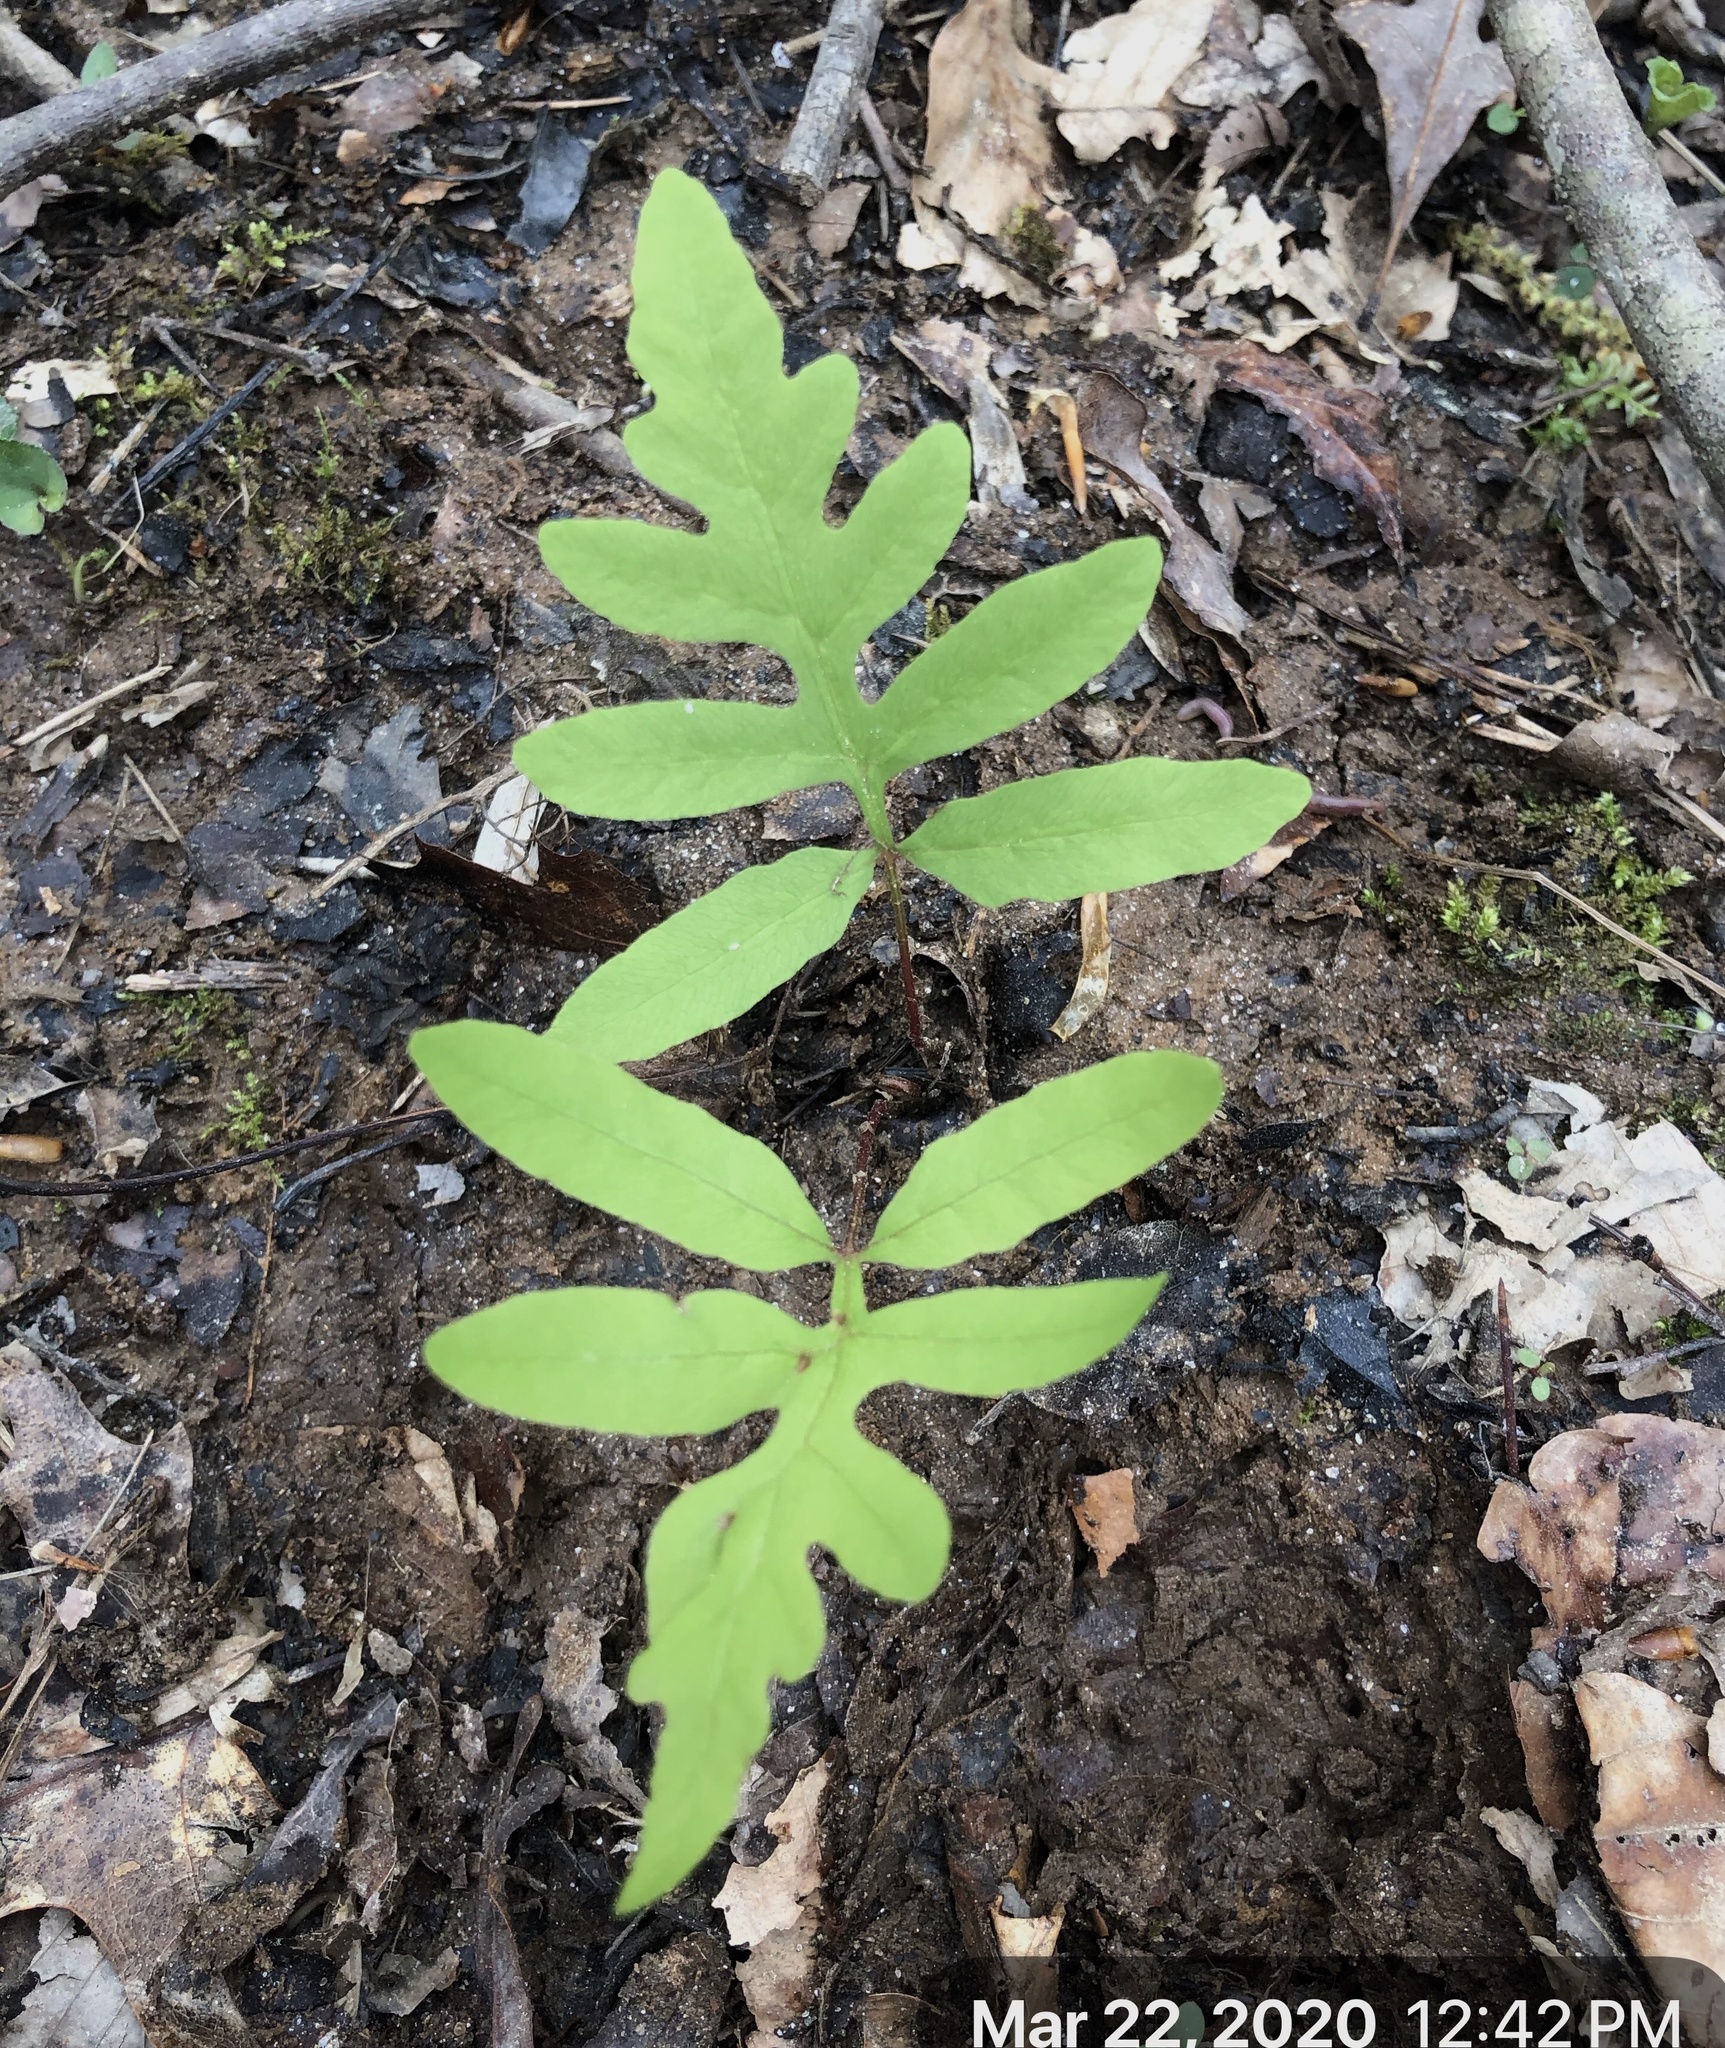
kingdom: Plantae
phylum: Tracheophyta
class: Polypodiopsida
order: Polypodiales
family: Onocleaceae
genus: Onoclea
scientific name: Onoclea sensibilis
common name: Sensitive fern
